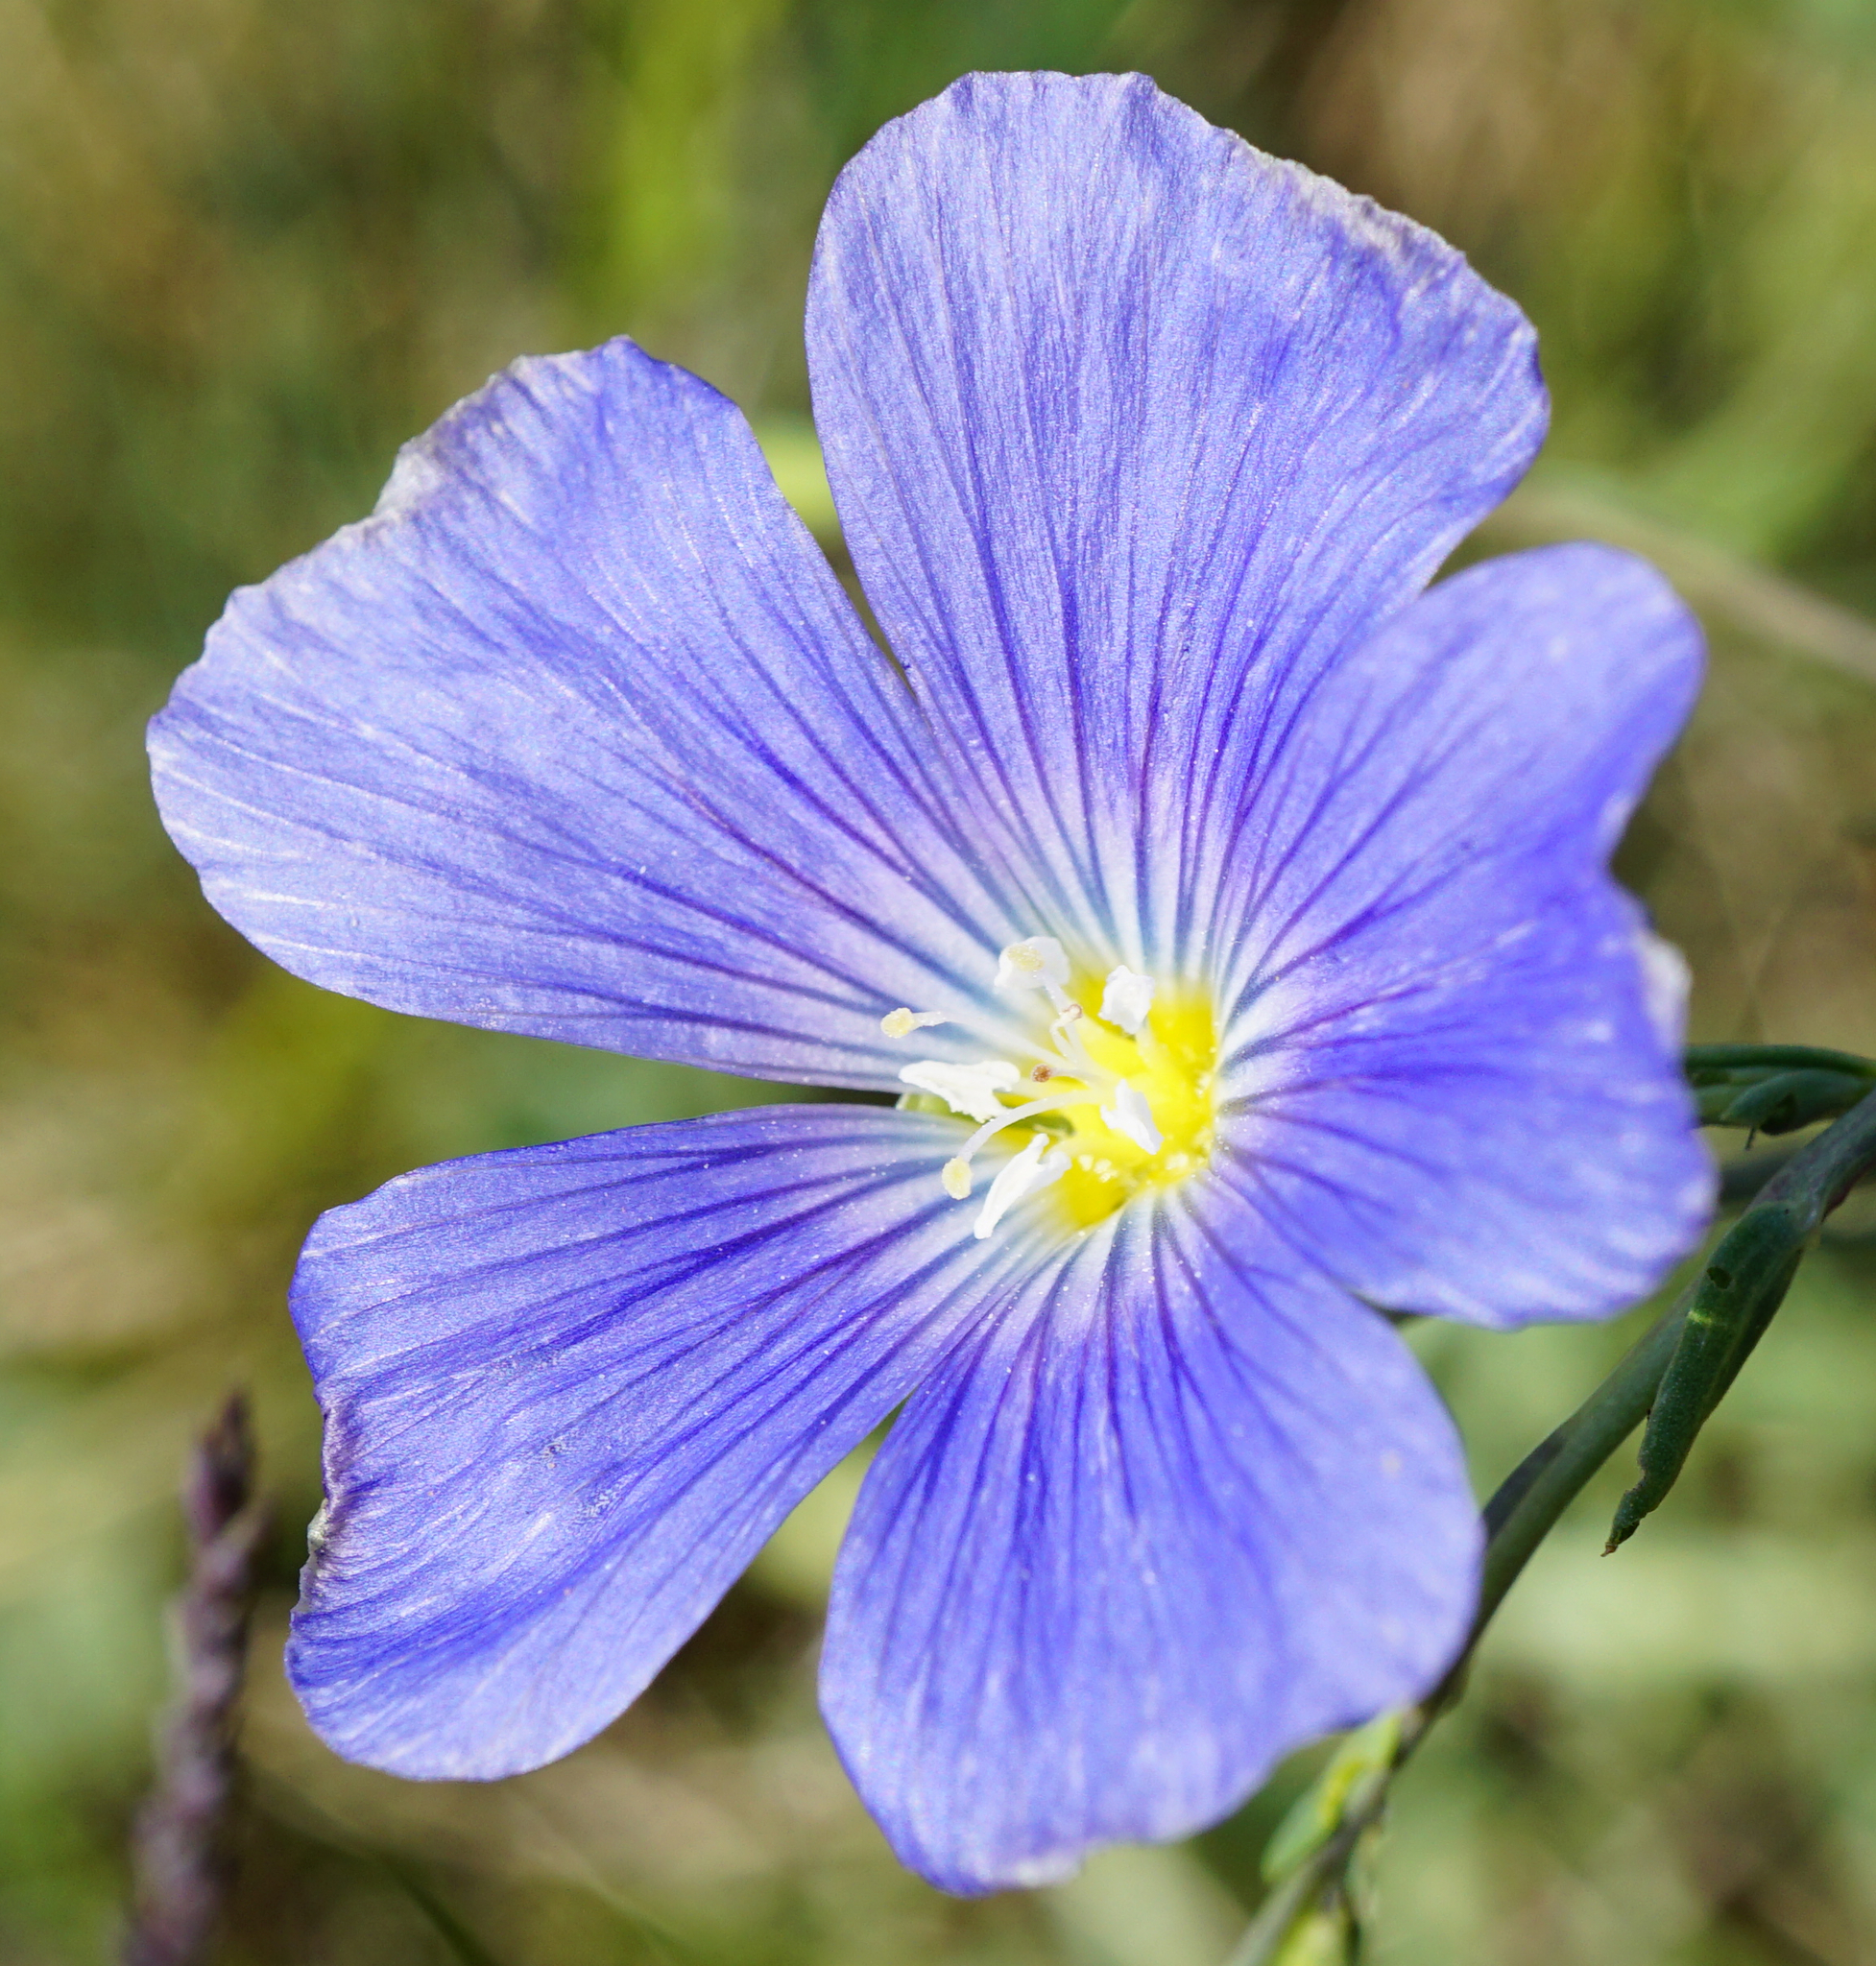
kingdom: Plantae
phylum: Tracheophyta
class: Magnoliopsida
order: Malpighiales
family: Linaceae
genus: Linum
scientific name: Linum austriacum
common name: Austrian flax
